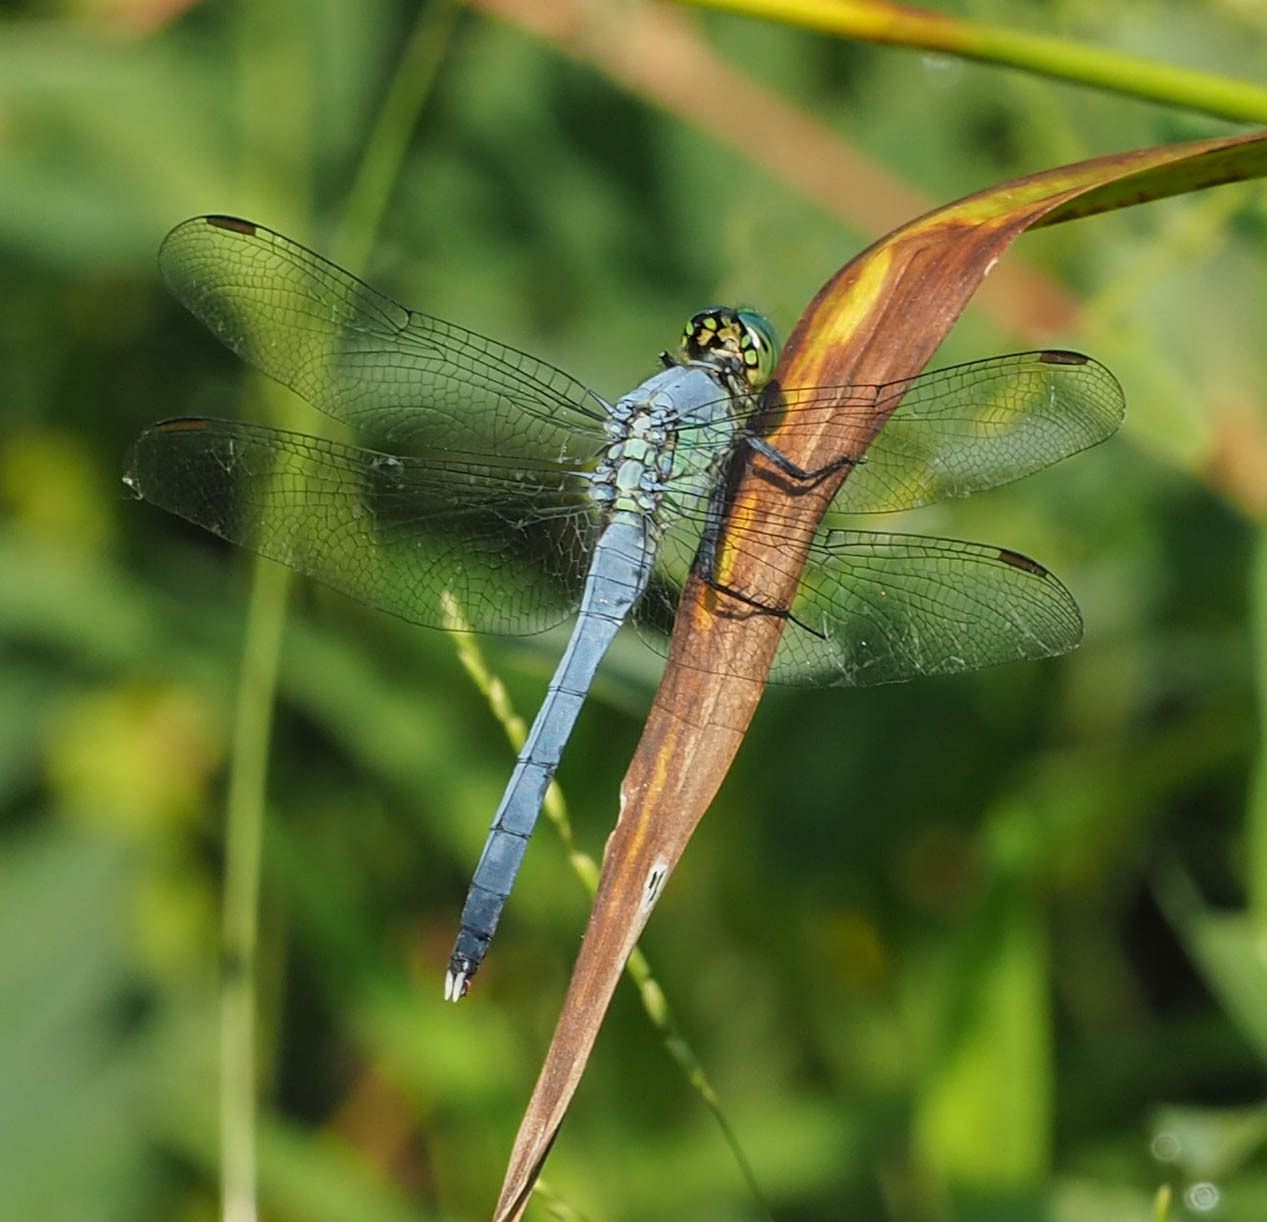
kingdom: Animalia
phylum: Arthropoda
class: Insecta
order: Odonata
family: Libellulidae
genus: Erythemis
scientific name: Erythemis simplicicollis
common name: Eastern pondhawk
